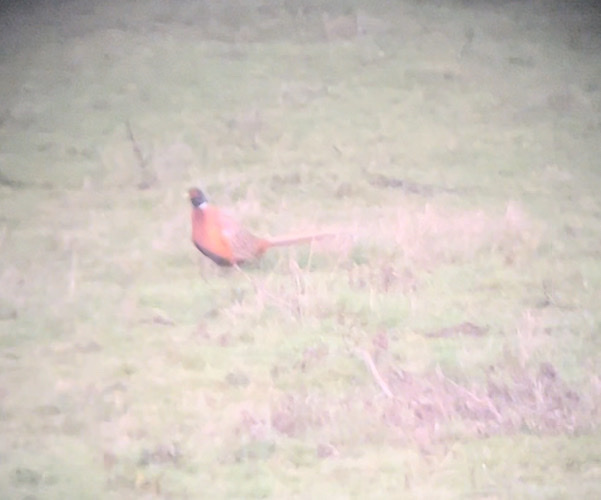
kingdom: Animalia
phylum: Chordata
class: Aves
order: Galliformes
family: Phasianidae
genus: Phasianus
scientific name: Phasianus colchicus
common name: Common pheasant
